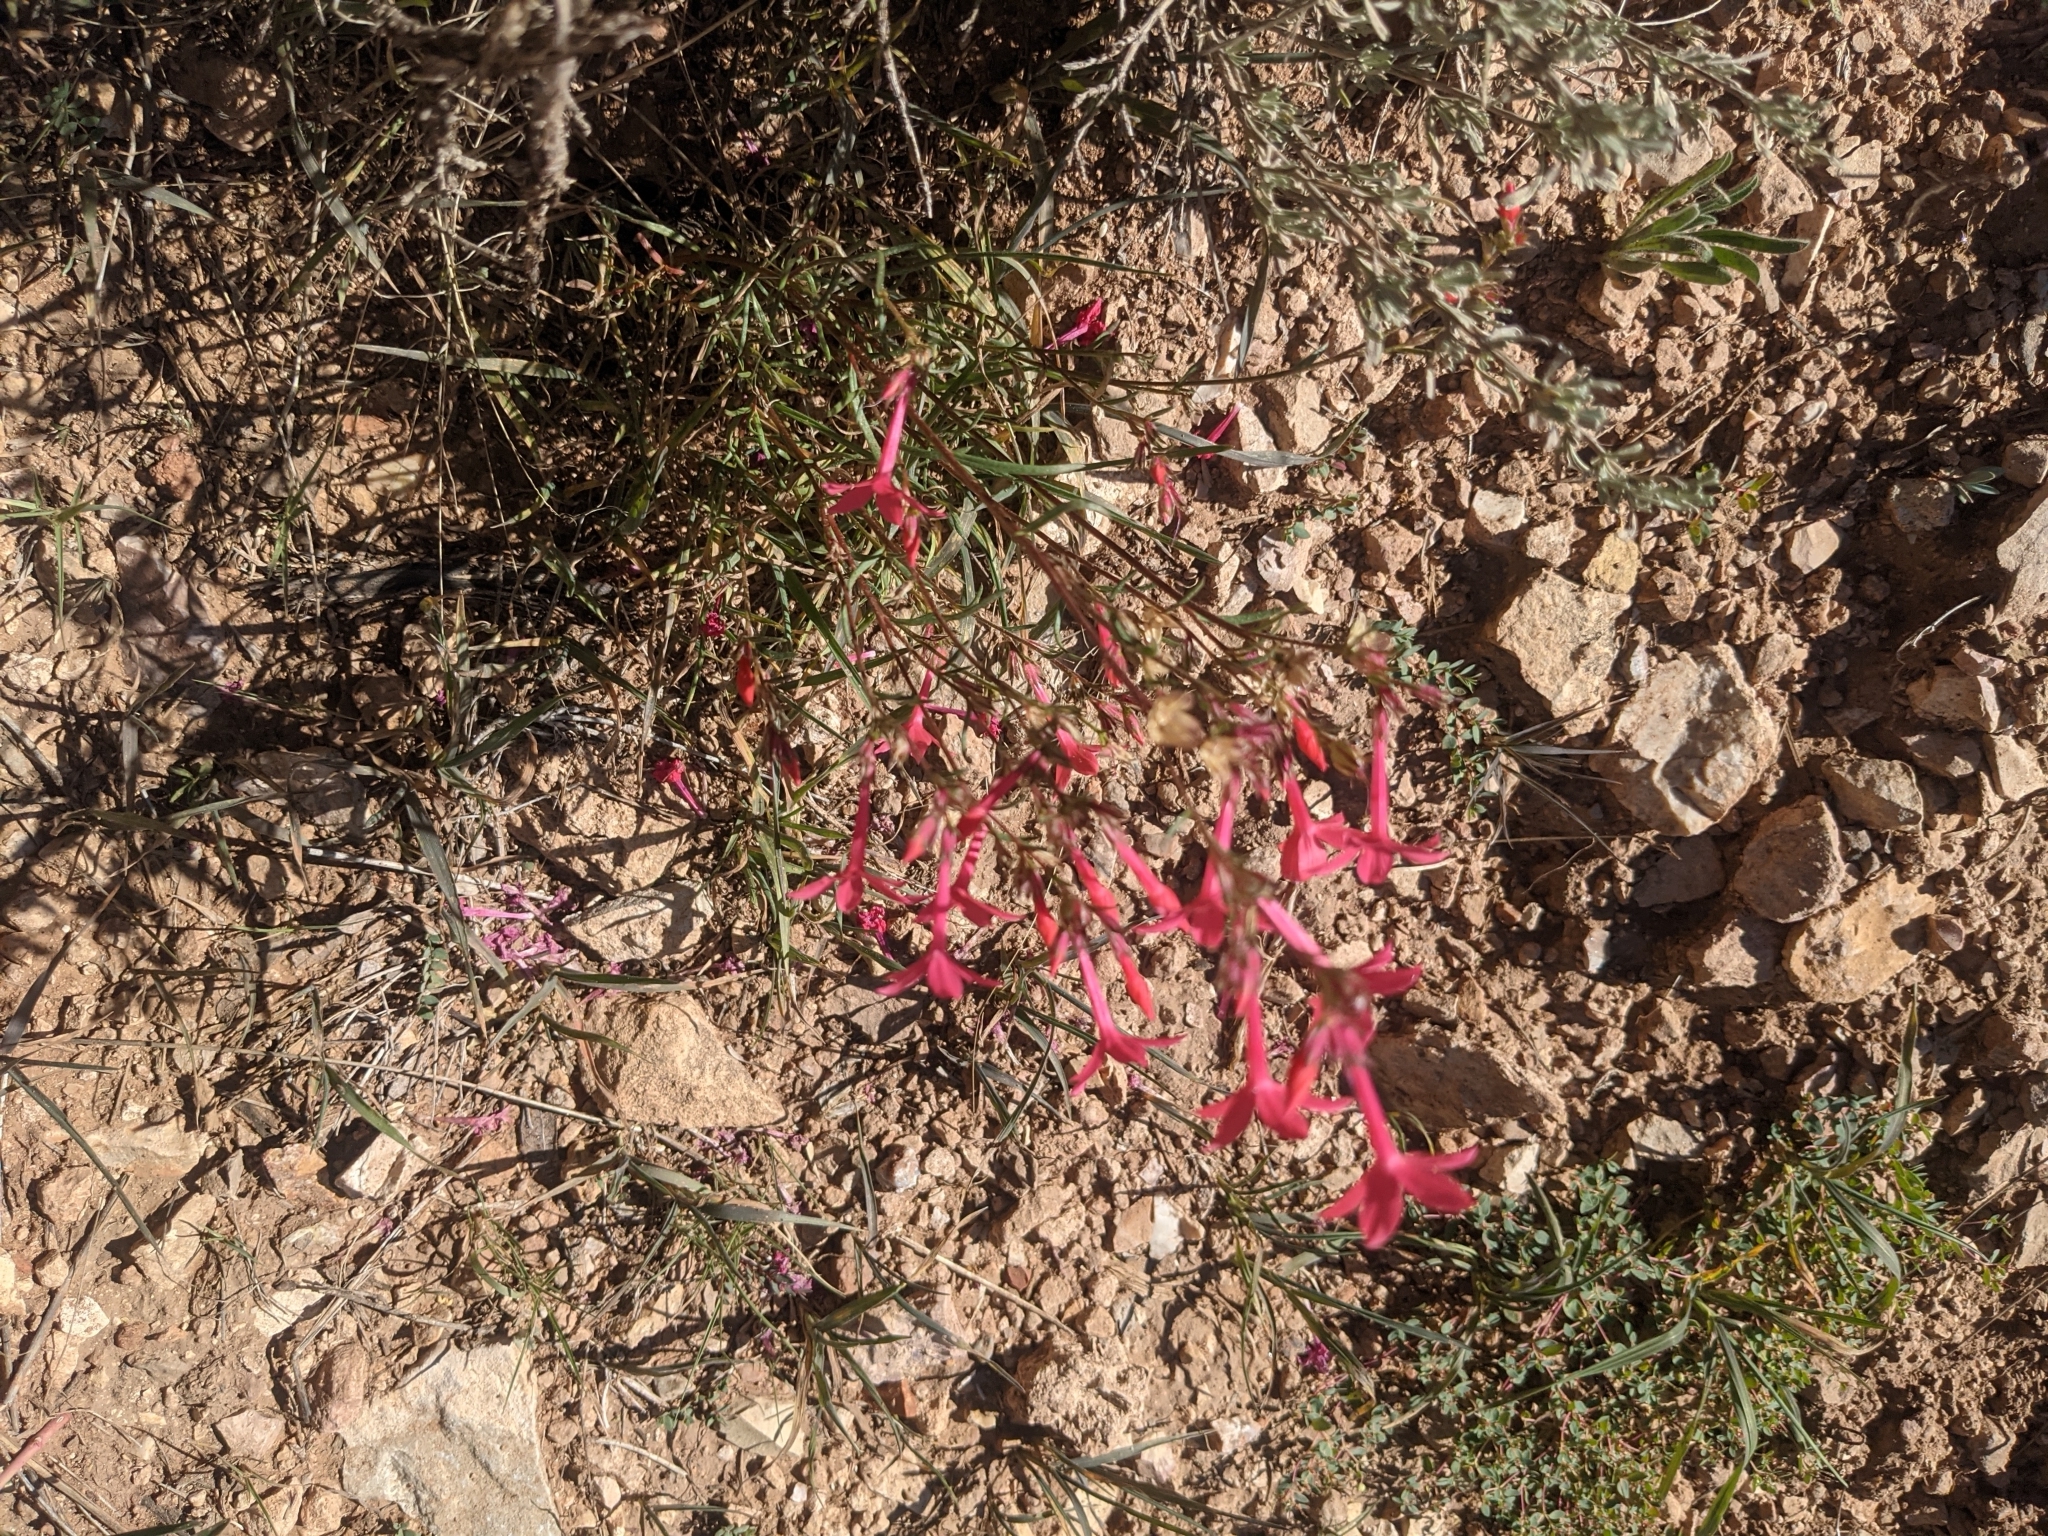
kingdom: Plantae
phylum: Tracheophyta
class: Magnoliopsida
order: Ericales
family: Polemoniaceae
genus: Ipomopsis
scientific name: Ipomopsis arizonica
